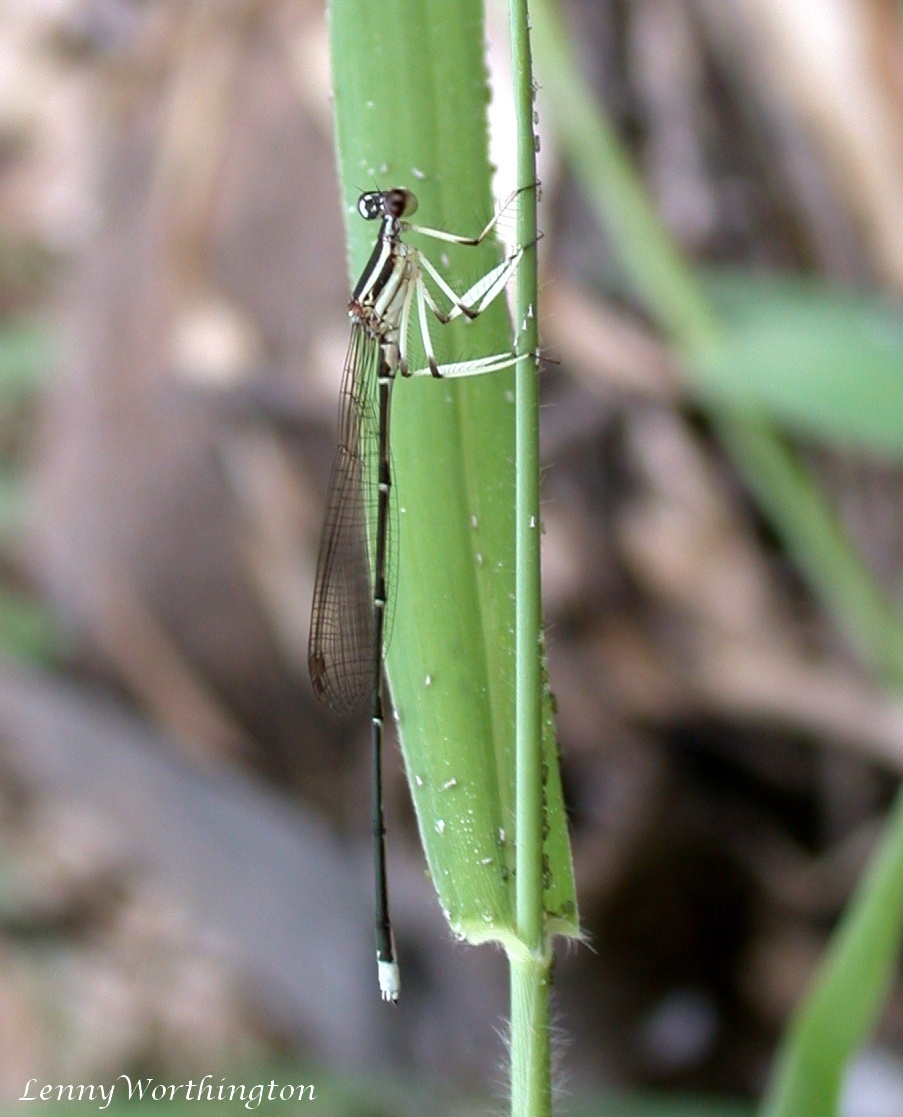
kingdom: Animalia
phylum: Arthropoda
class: Insecta
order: Odonata
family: Platycnemididae
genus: Pseudocopera
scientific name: Pseudocopera ciliata
